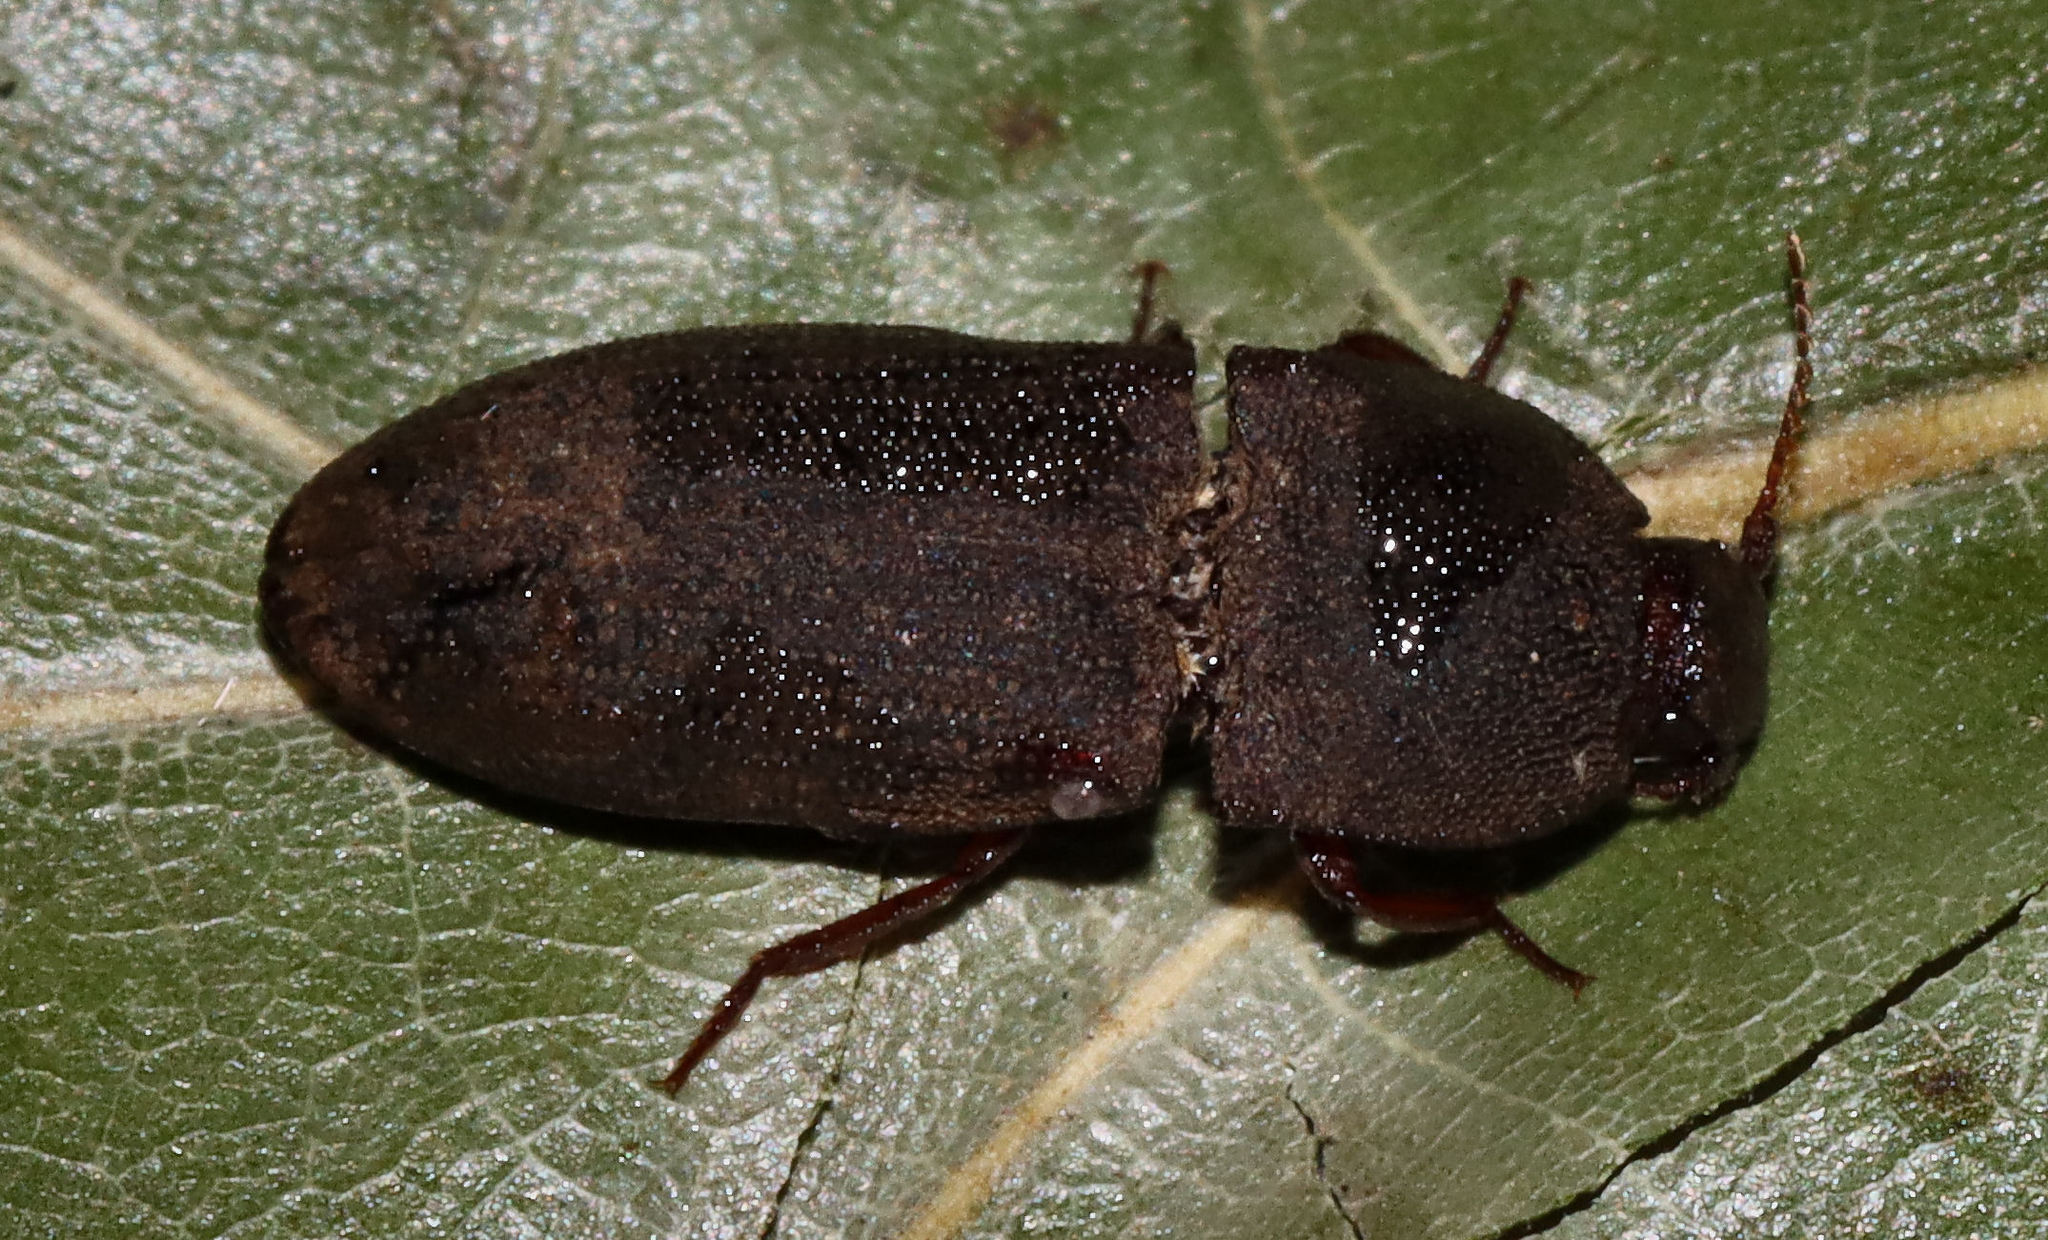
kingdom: Animalia
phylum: Arthropoda
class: Insecta
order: Coleoptera
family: Elateridae
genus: Agrypnus
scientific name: Agrypnus rectangularis
